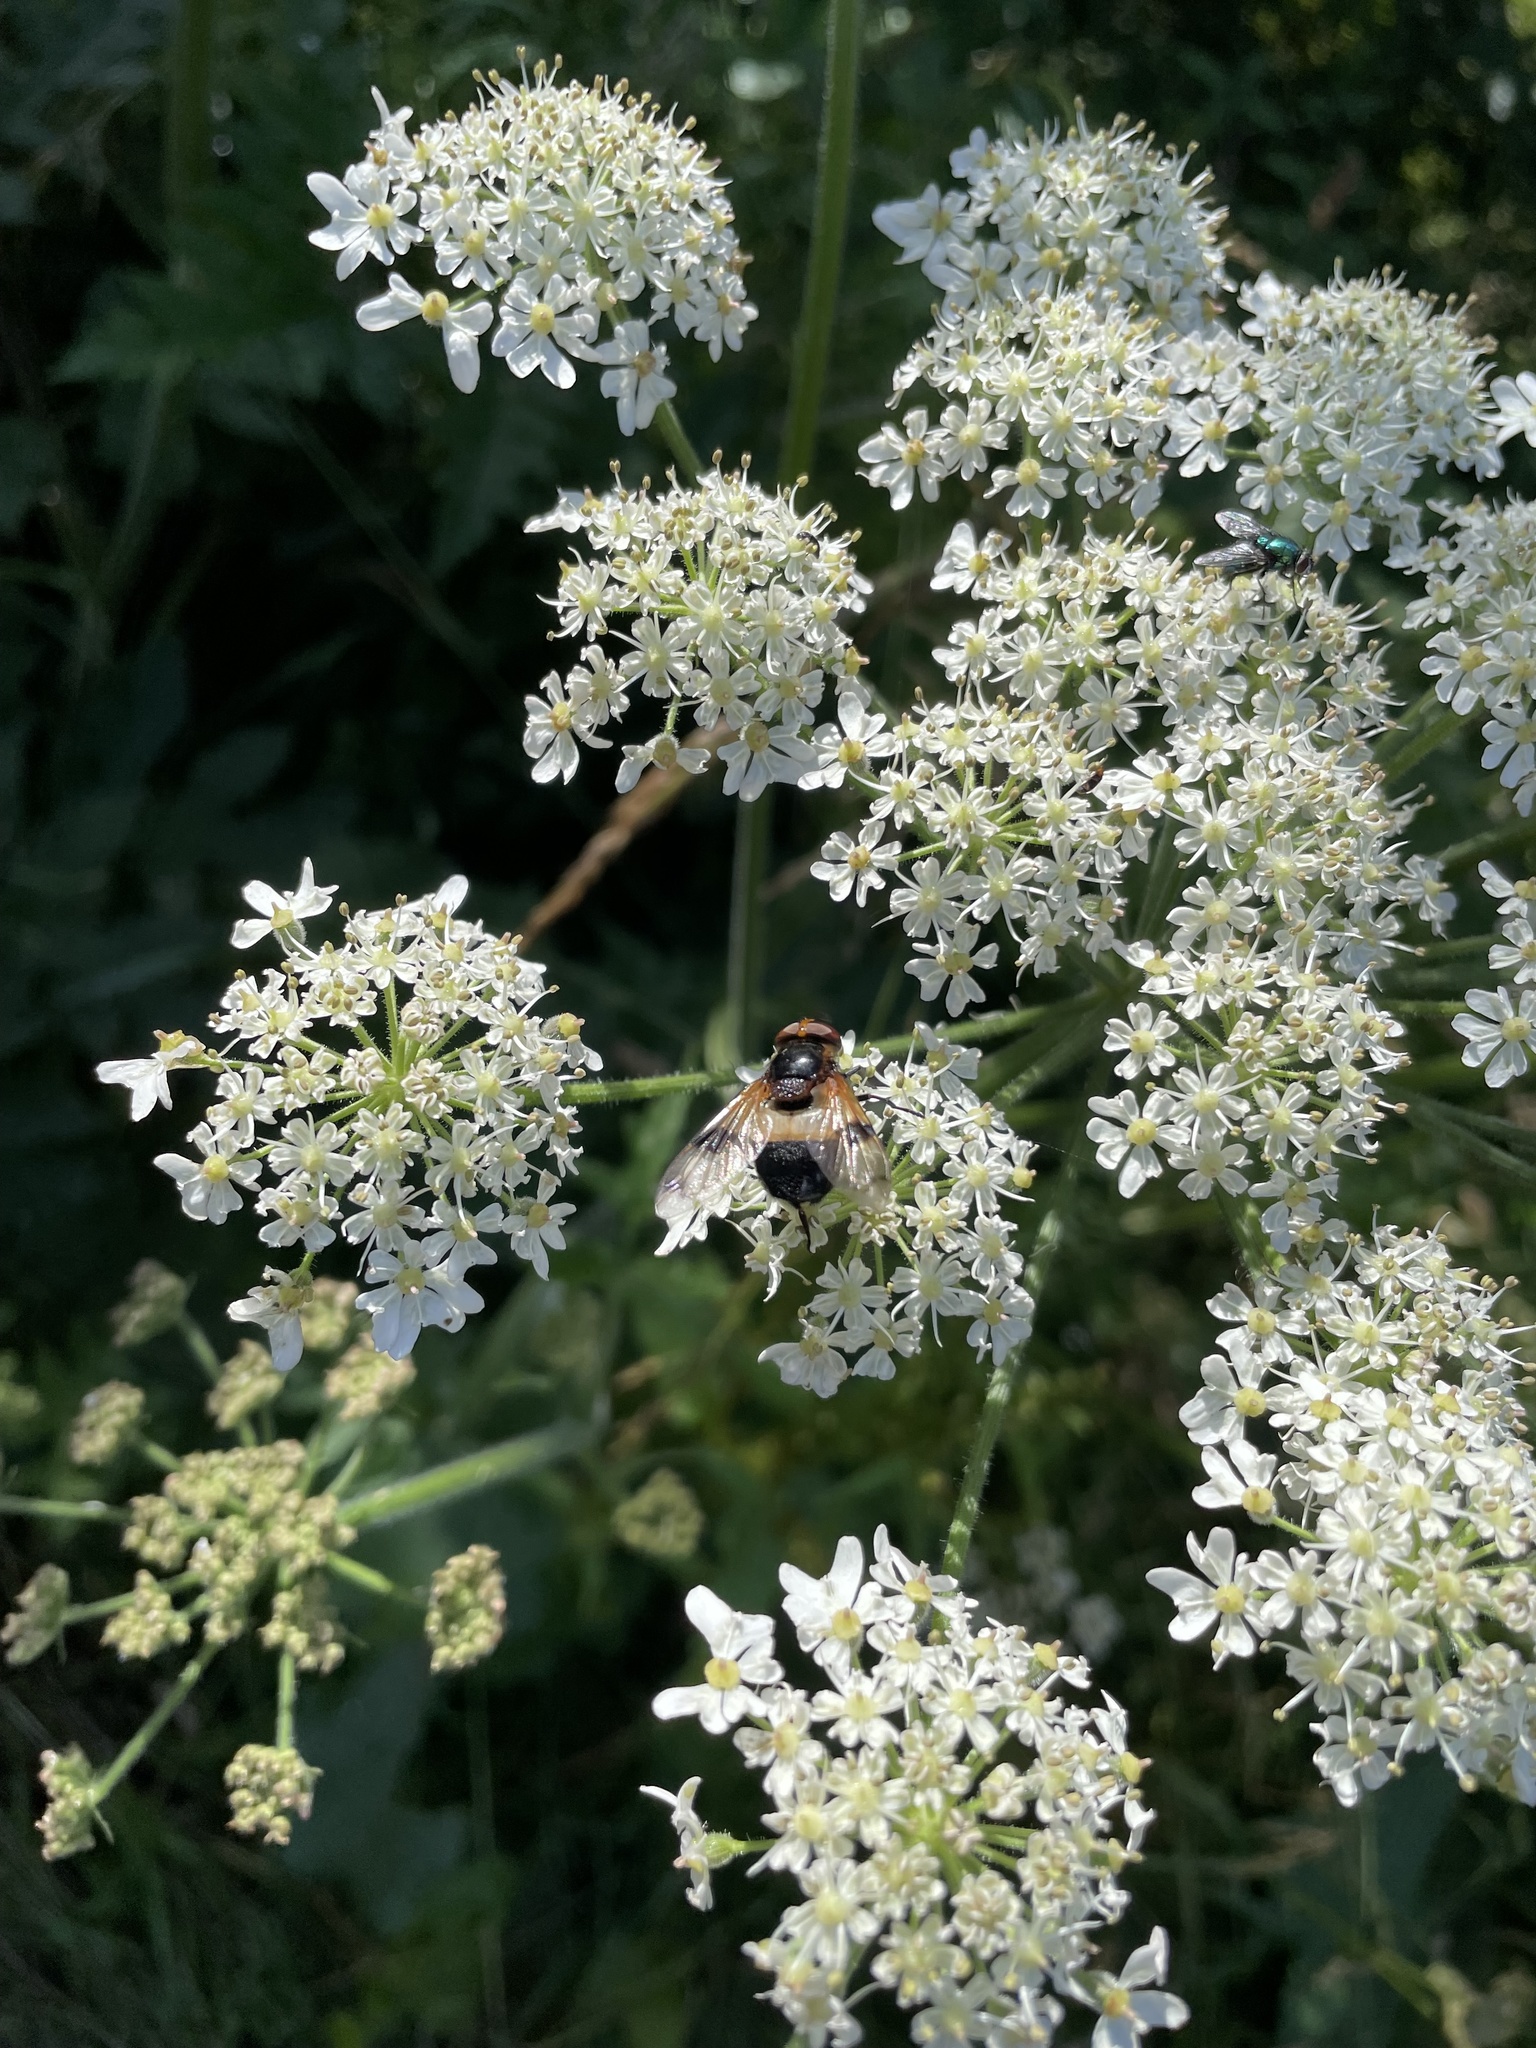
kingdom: Animalia
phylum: Arthropoda
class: Insecta
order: Diptera
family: Syrphidae
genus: Volucella
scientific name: Volucella pellucens
